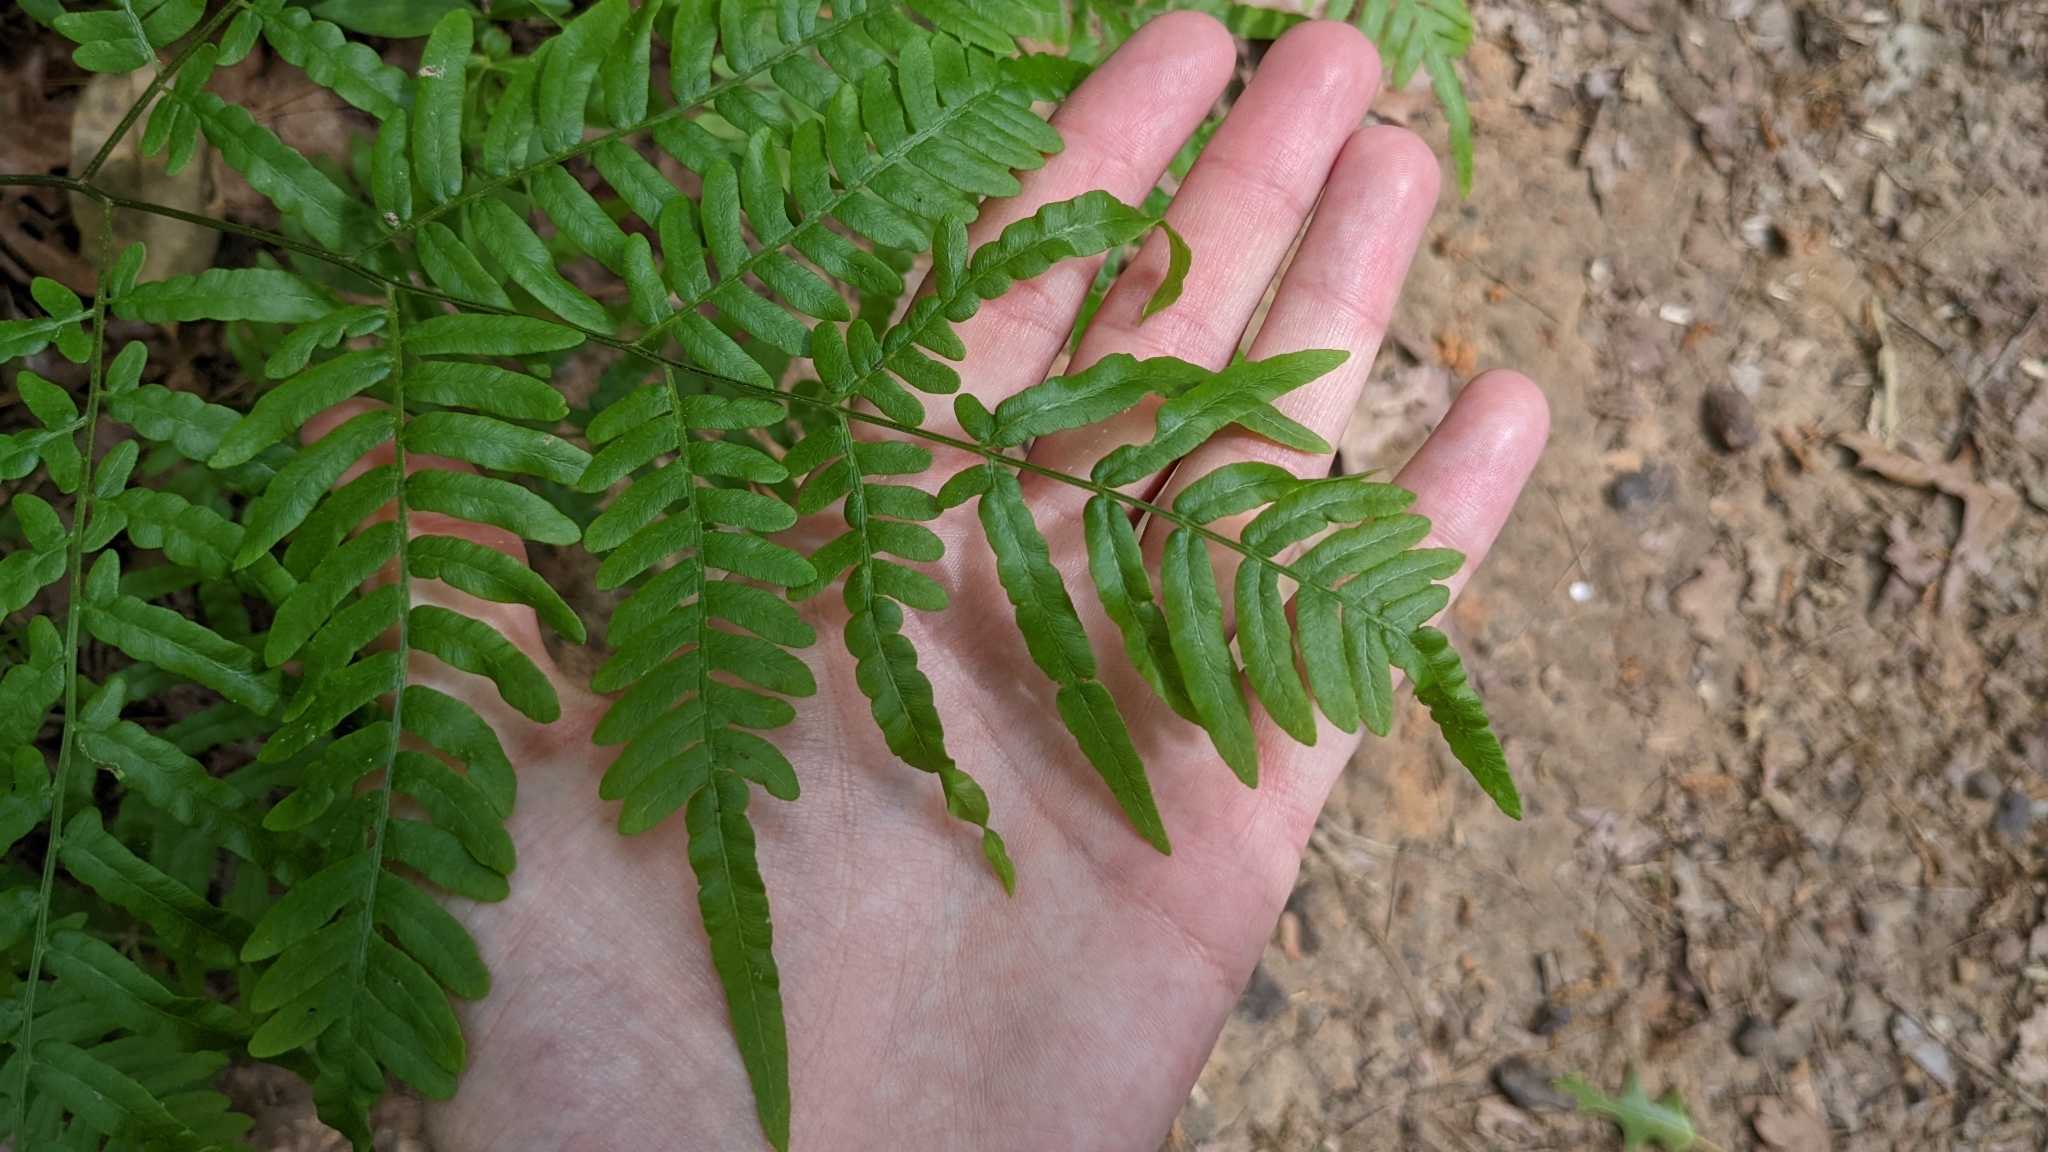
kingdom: Plantae
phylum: Tracheophyta
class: Polypodiopsida
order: Polypodiales
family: Dennstaedtiaceae
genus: Pteridium
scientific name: Pteridium aquilinum
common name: Bracken
